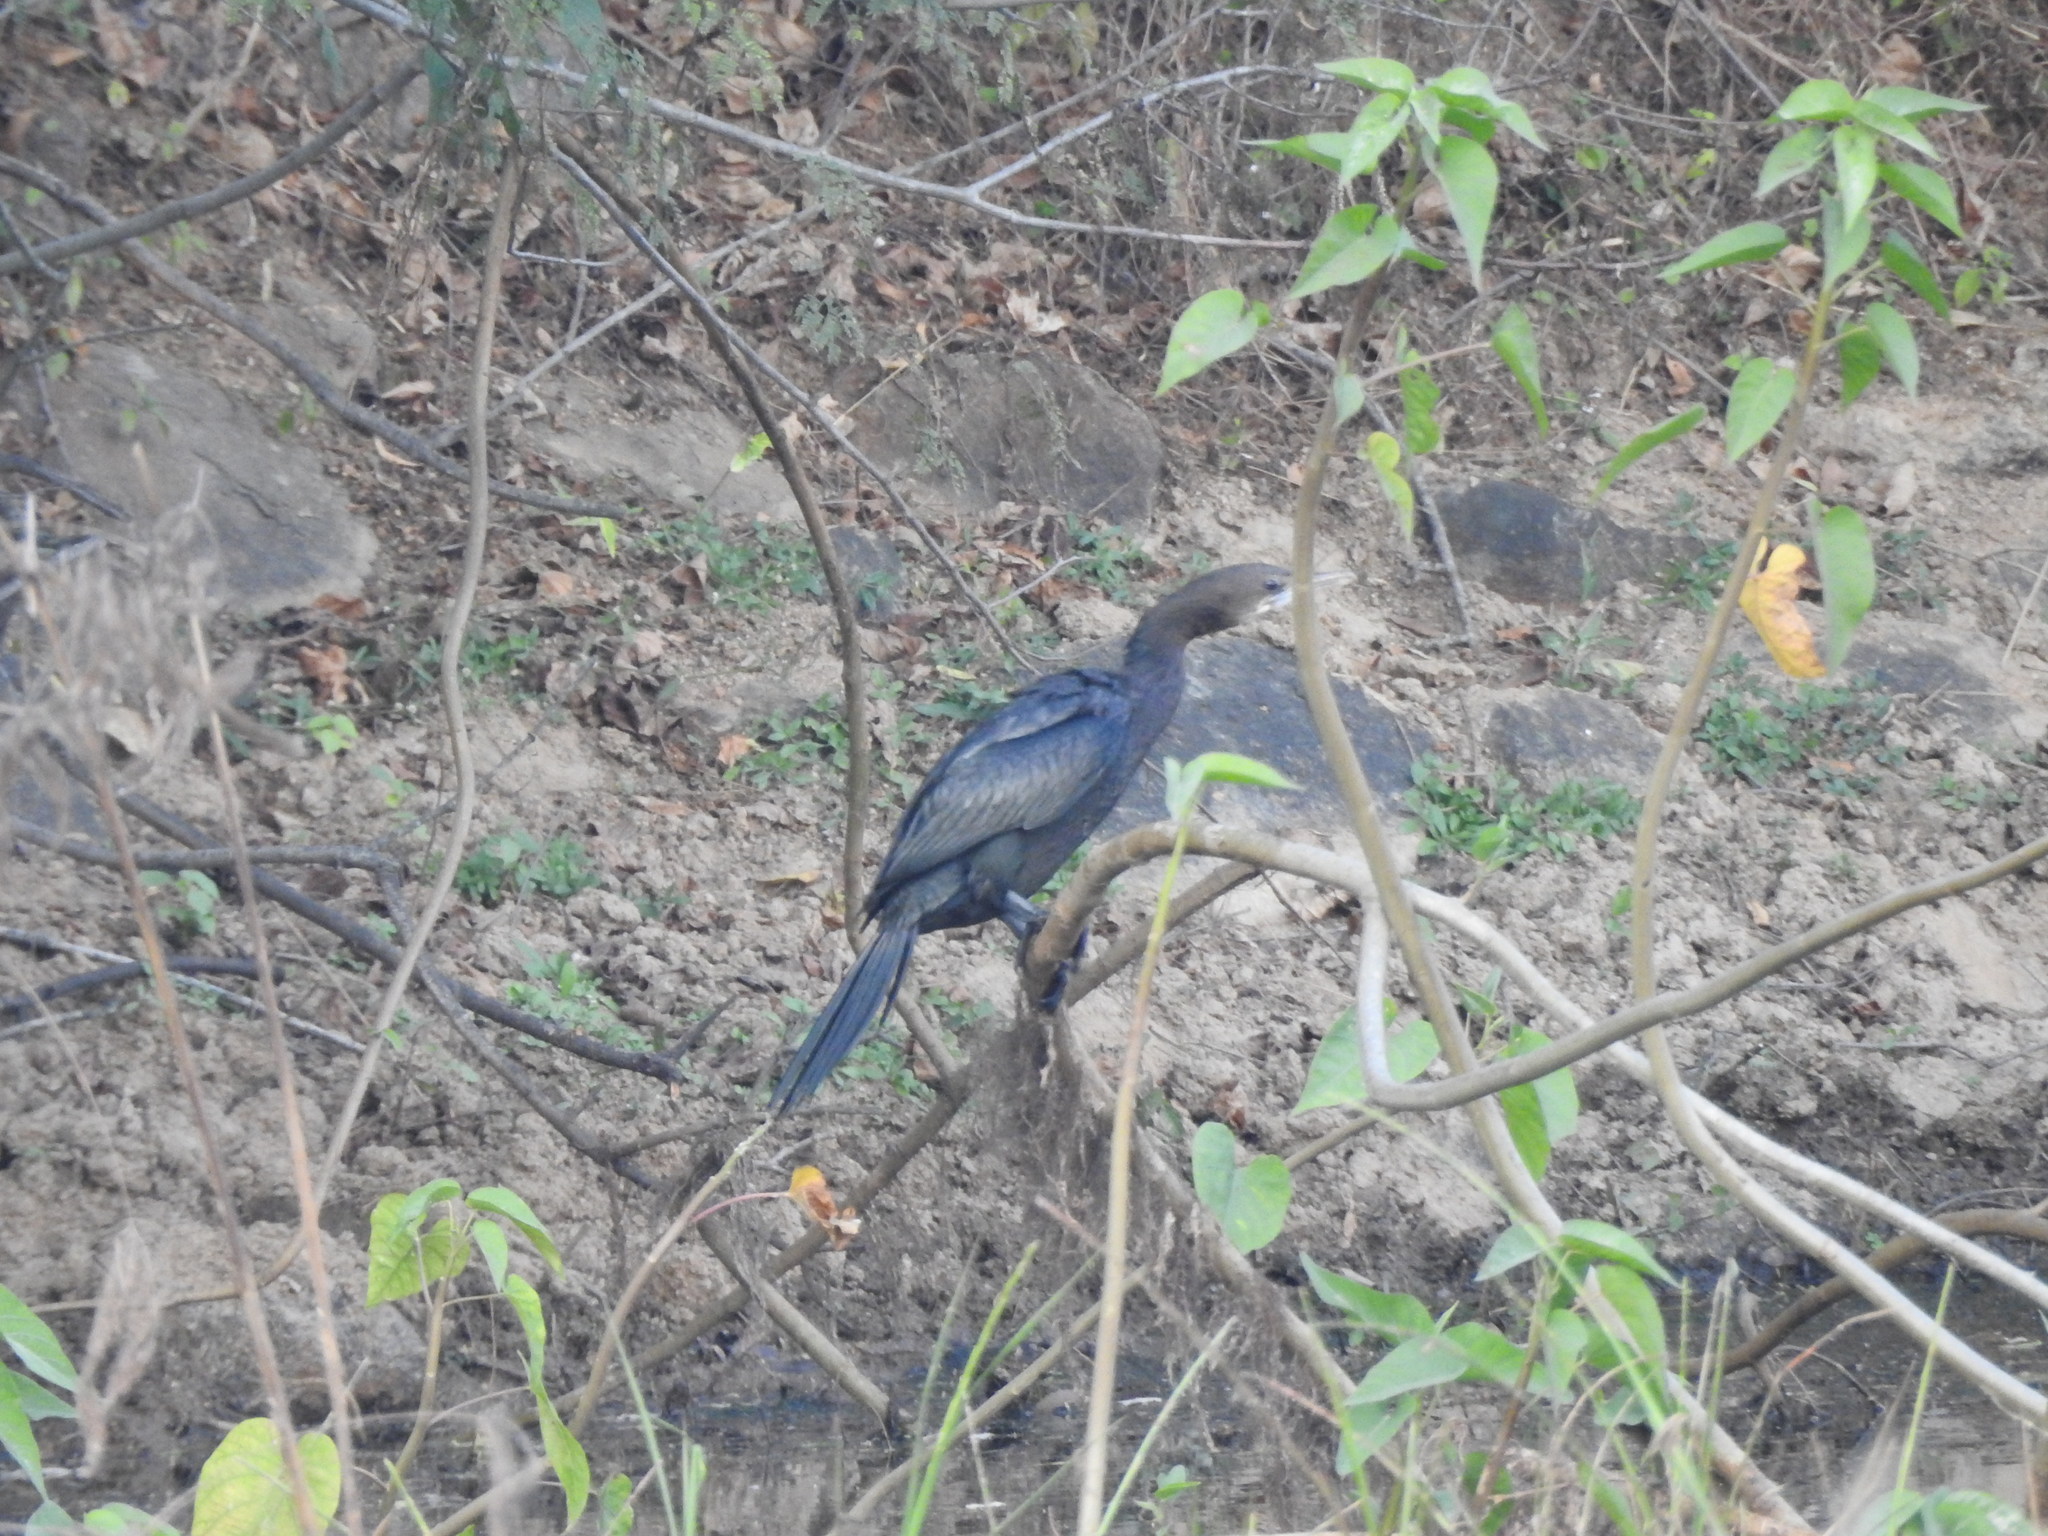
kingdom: Animalia
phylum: Chordata
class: Aves
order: Suliformes
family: Phalacrocoracidae
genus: Microcarbo
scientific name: Microcarbo niger
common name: Little cormorant
